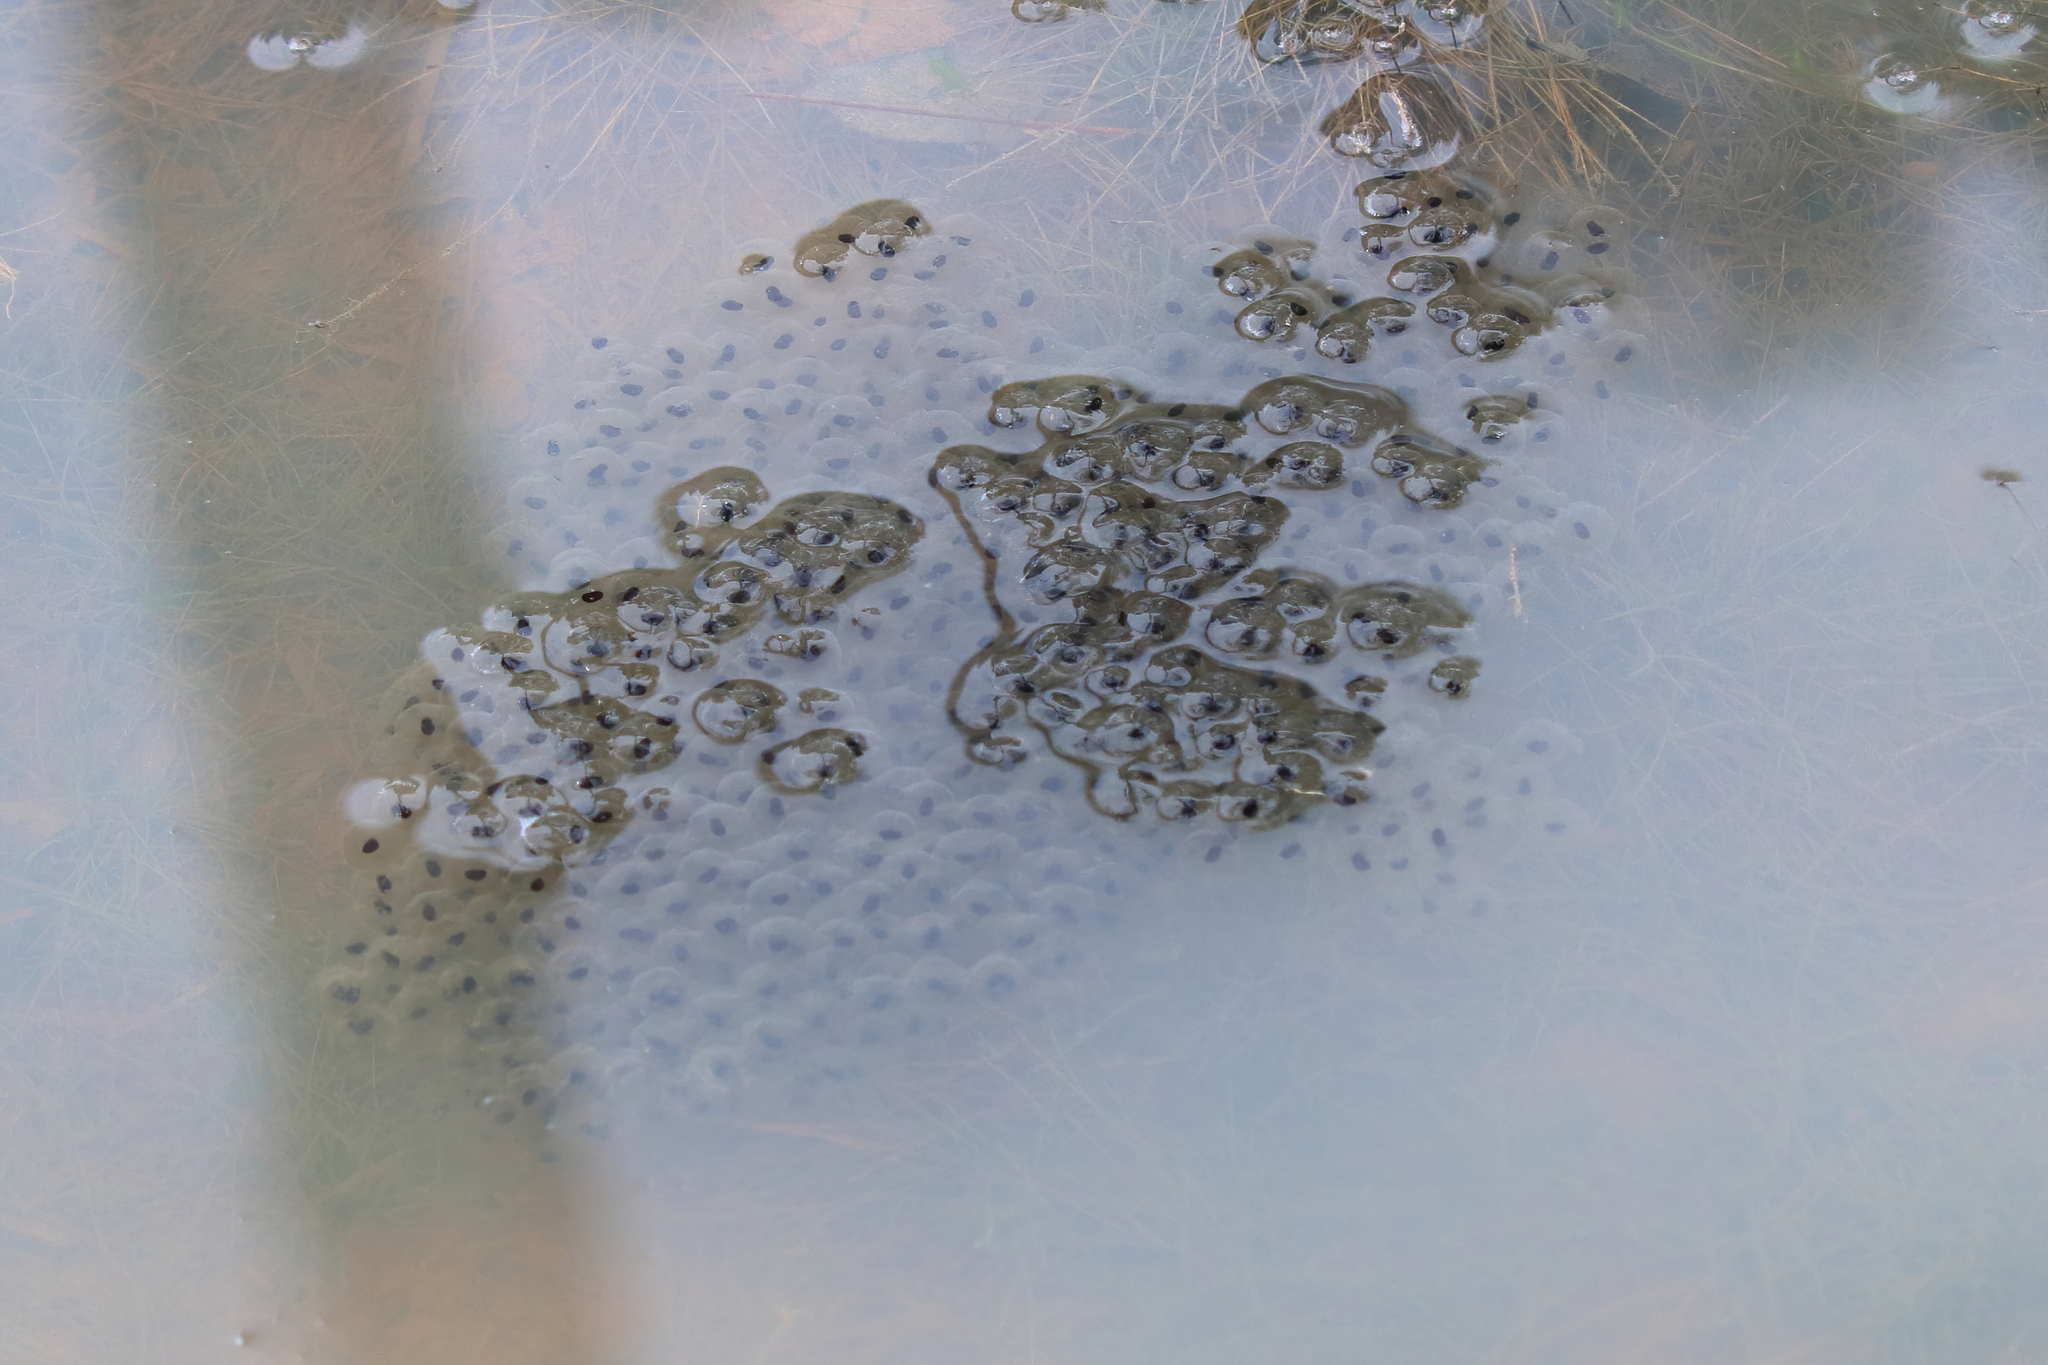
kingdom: Animalia
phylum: Chordata
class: Amphibia
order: Anura
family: Ranidae
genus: Lithobates
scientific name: Lithobates sphenocephalus
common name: Southern leopard frog
